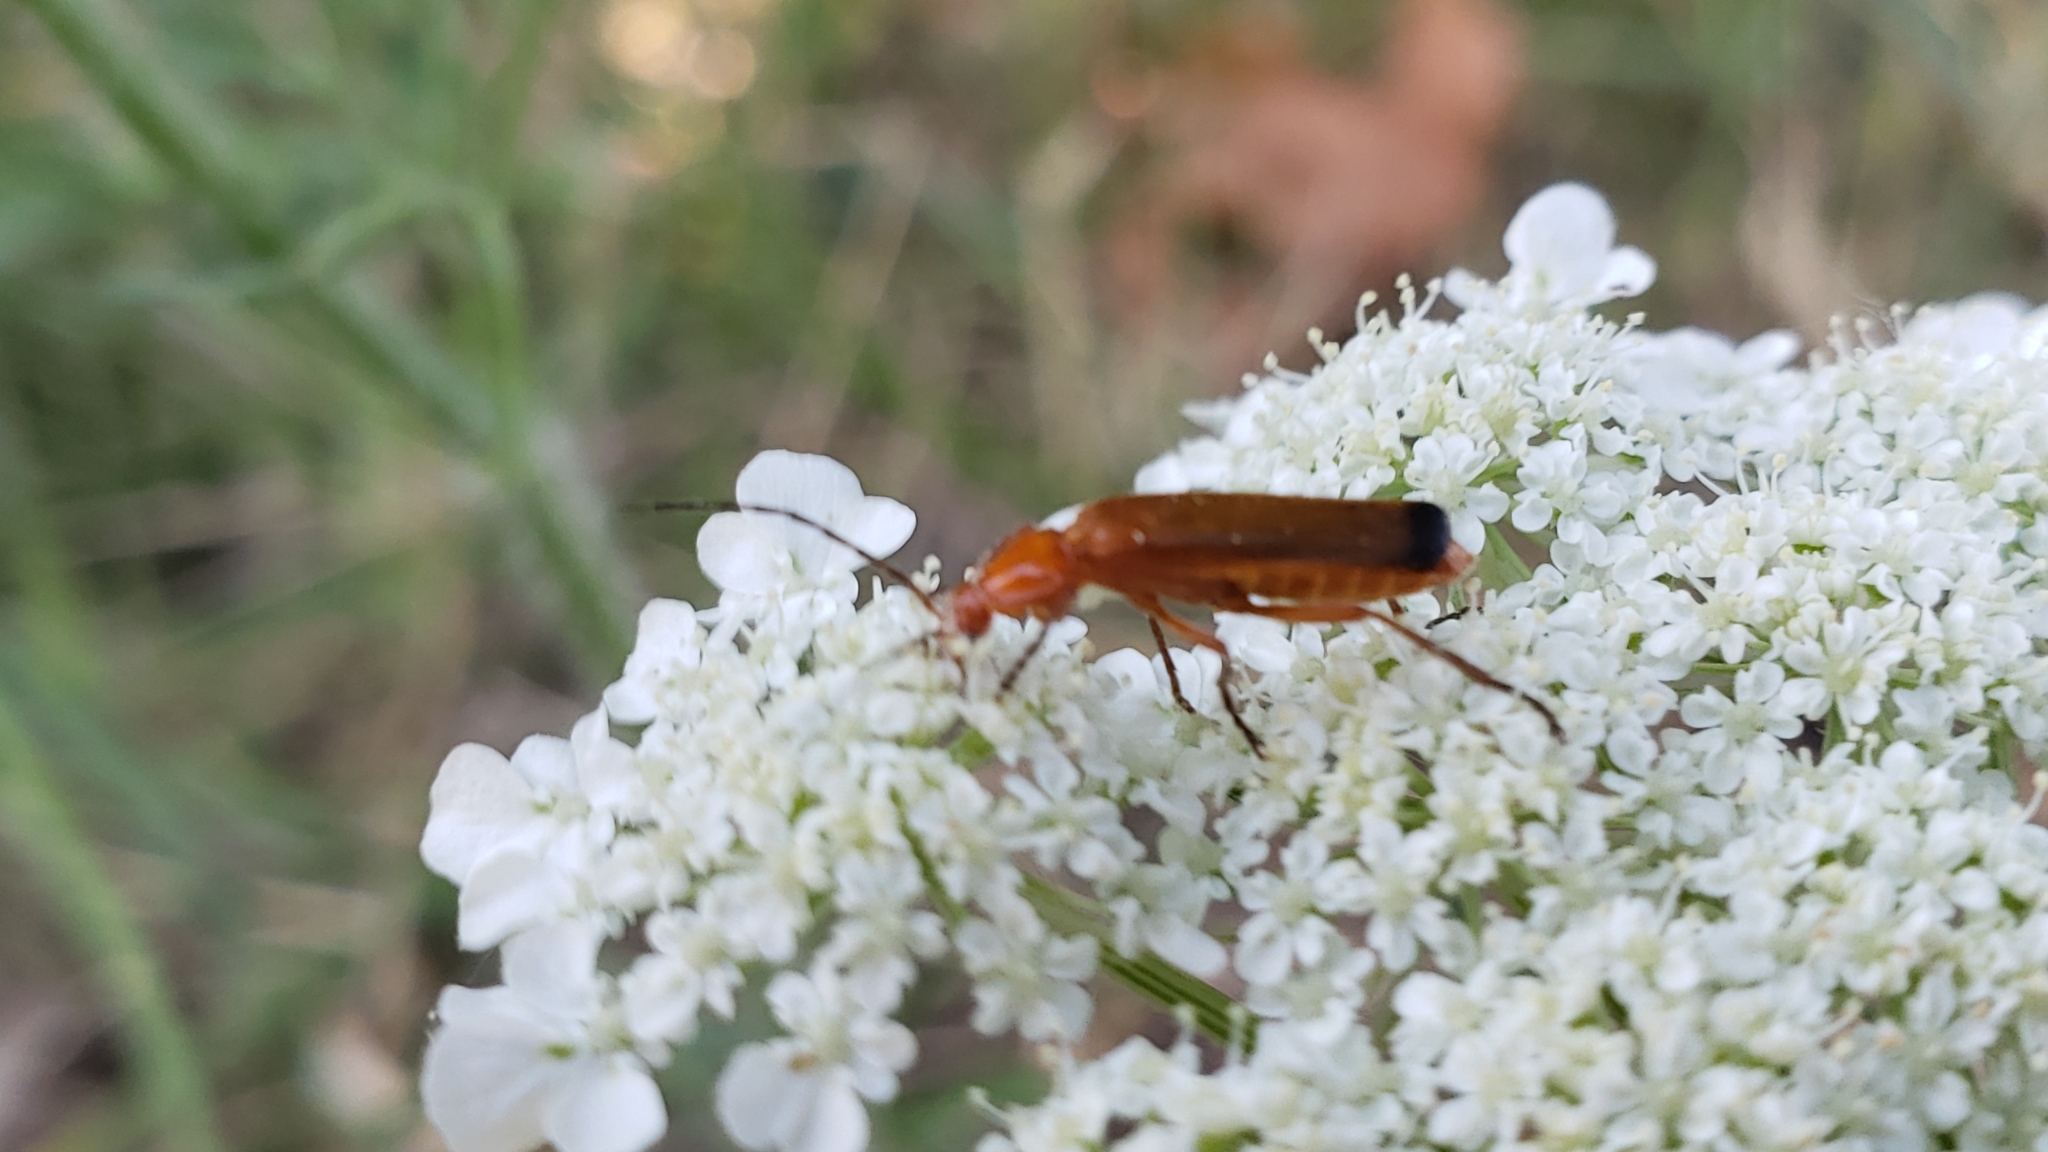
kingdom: Animalia
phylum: Arthropoda
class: Insecta
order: Coleoptera
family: Cantharidae
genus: Rhagonycha
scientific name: Rhagonycha fulva
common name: Common red soldier beetle
